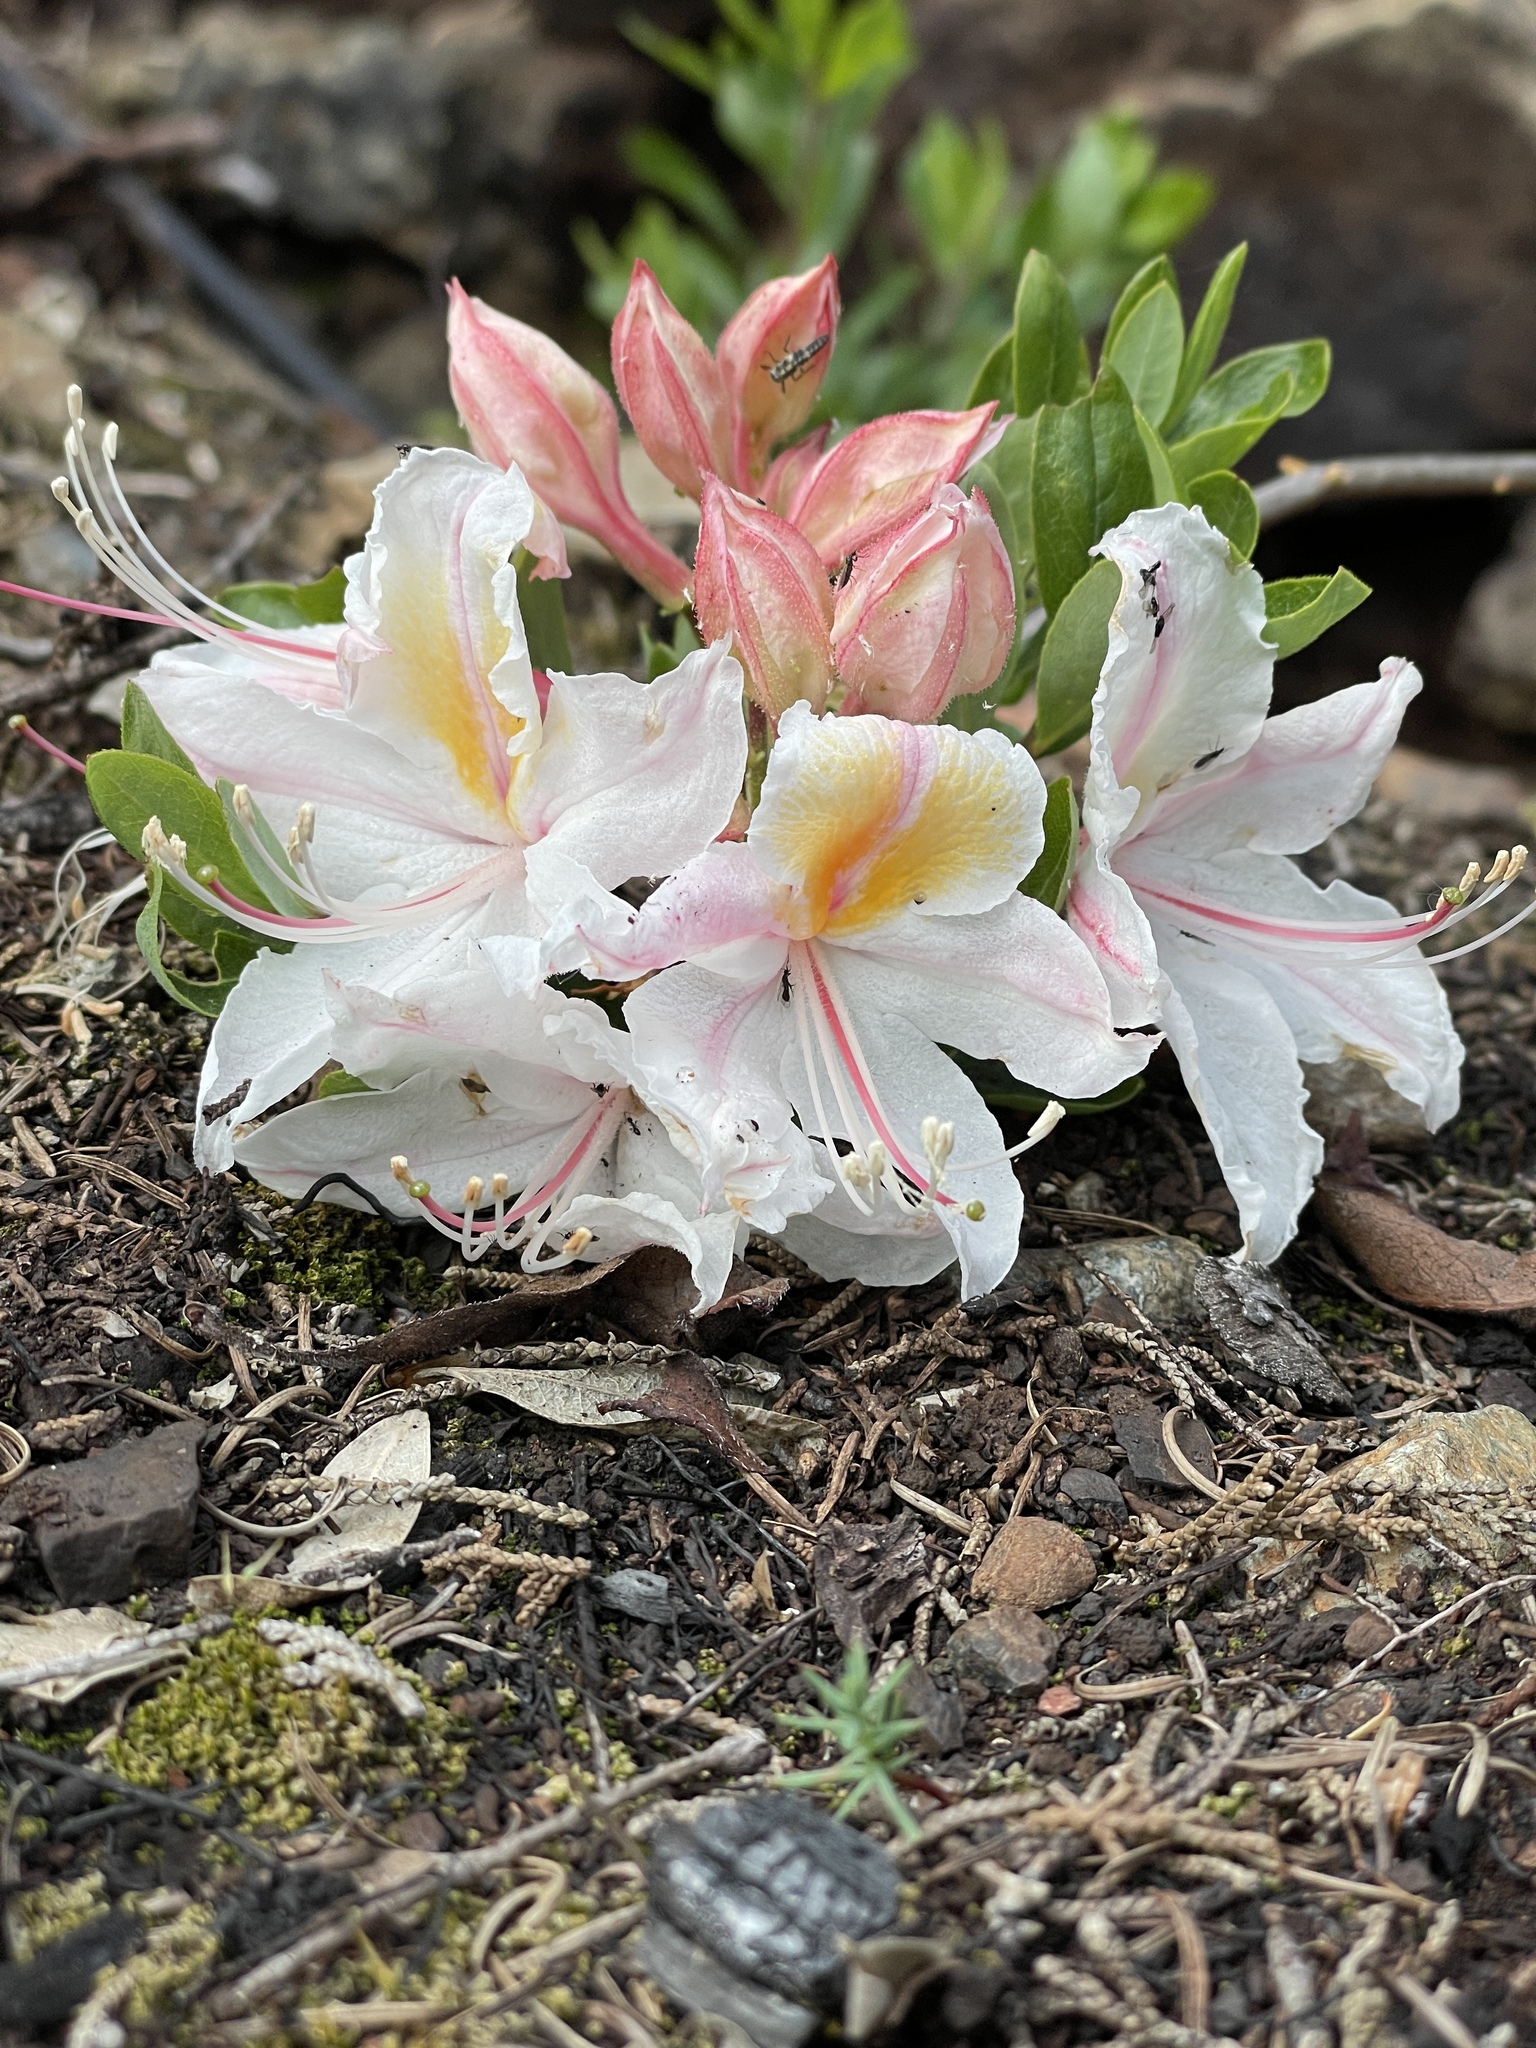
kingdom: Plantae
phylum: Tracheophyta
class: Magnoliopsida
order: Ericales
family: Ericaceae
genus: Rhododendron
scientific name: Rhododendron occidentale
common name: Western azalea
